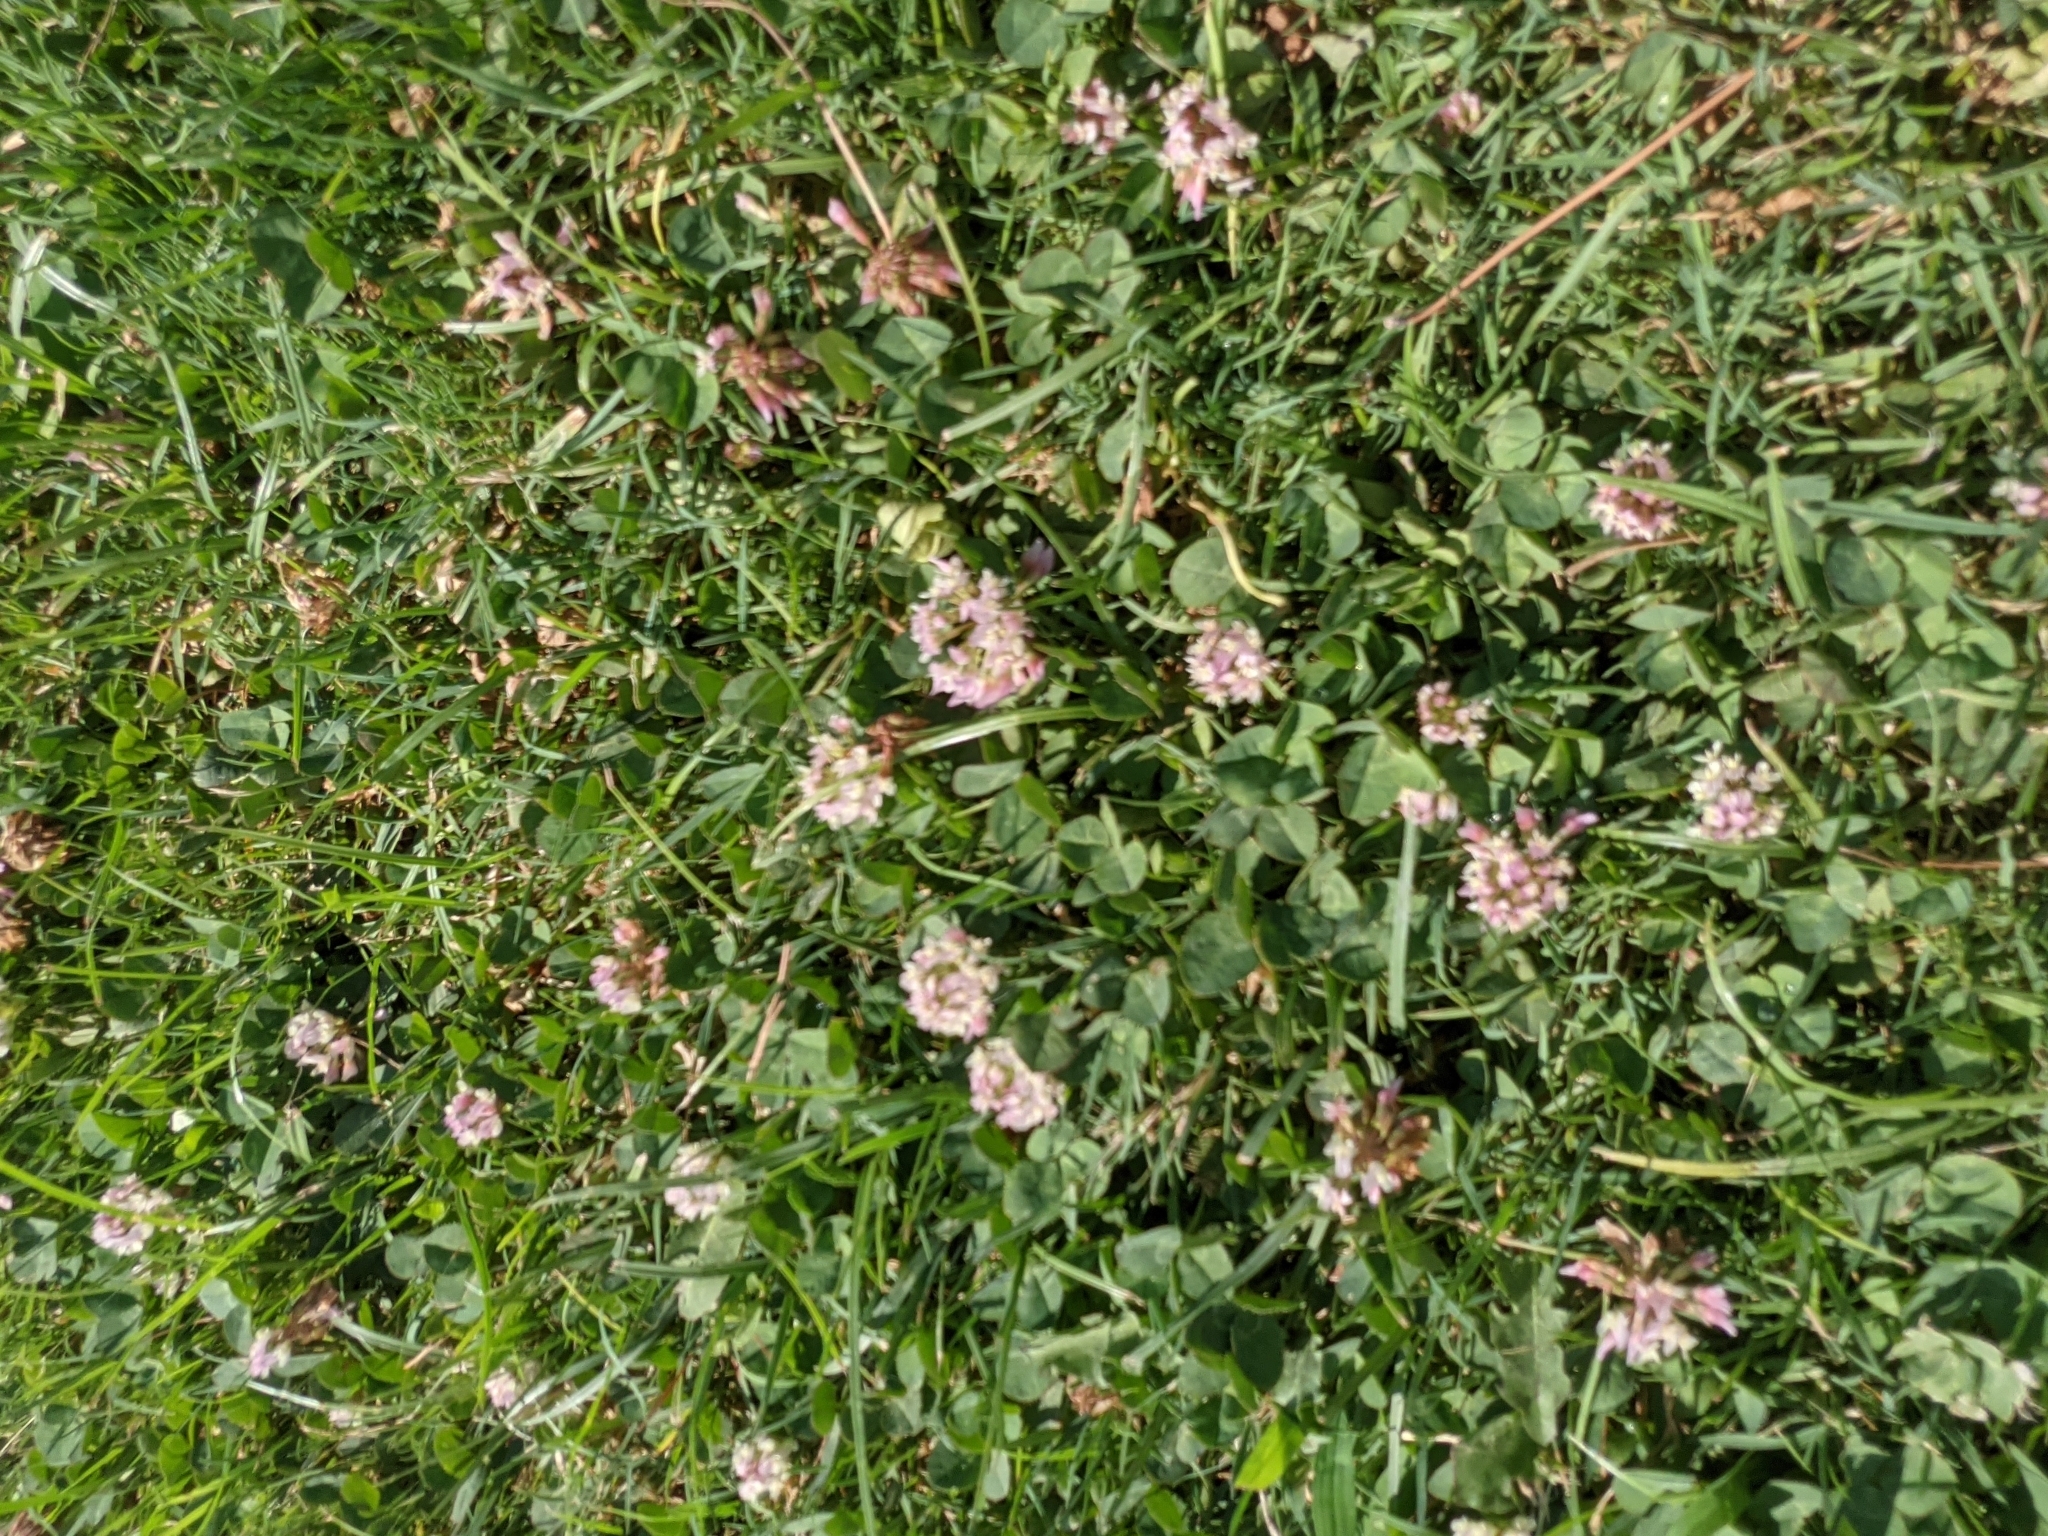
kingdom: Plantae
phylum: Tracheophyta
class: Magnoliopsida
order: Fabales
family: Fabaceae
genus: Trifolium
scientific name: Trifolium repens
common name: White clover
